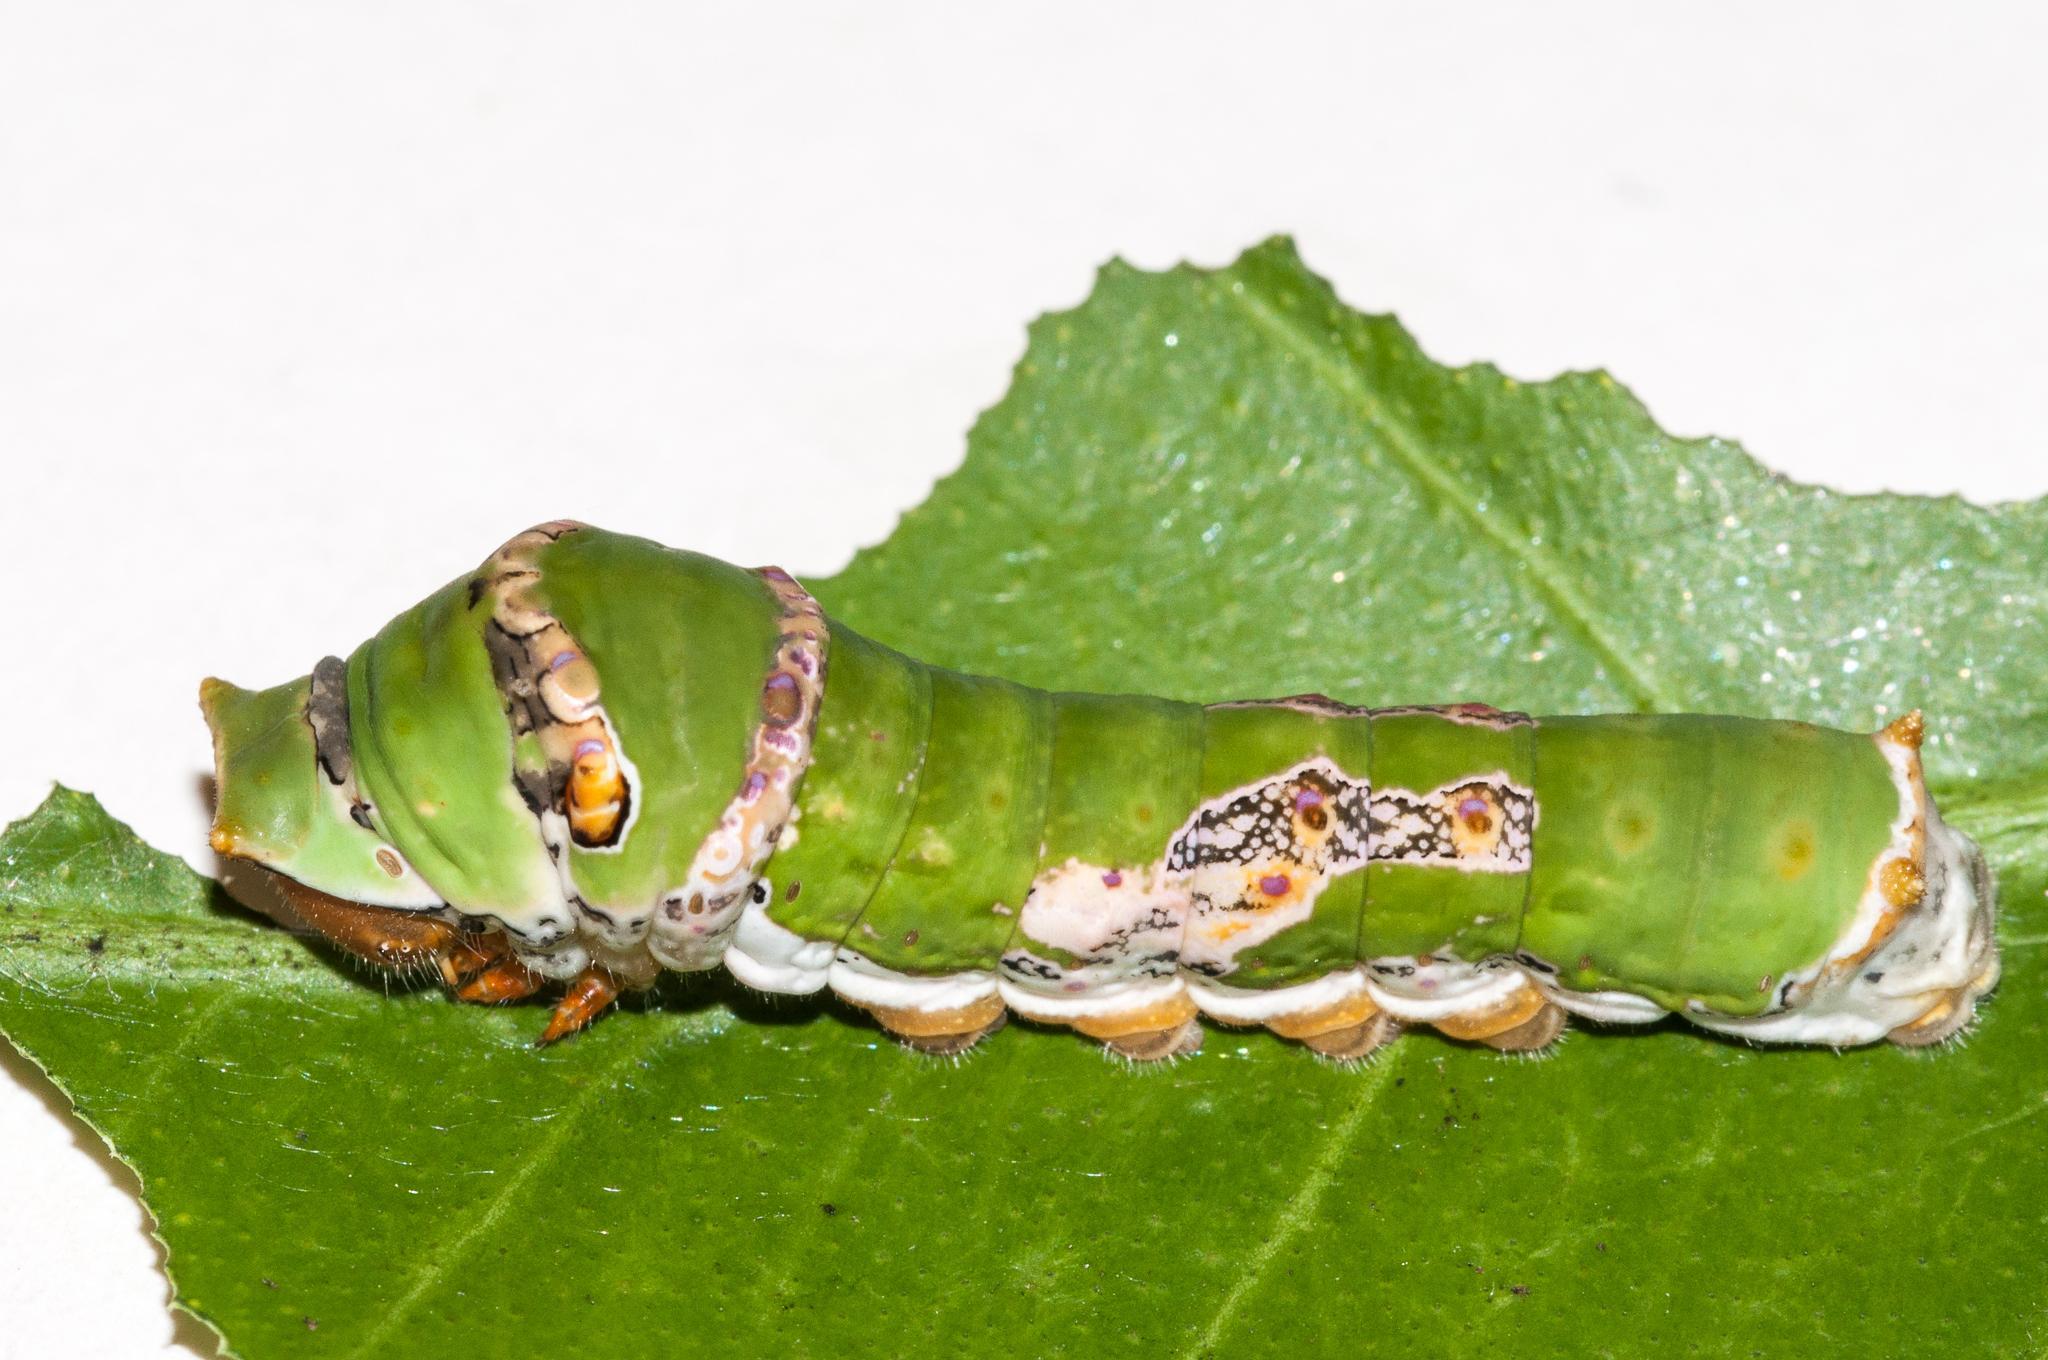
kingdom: Animalia
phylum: Arthropoda
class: Insecta
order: Lepidoptera
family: Papilionidae
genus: Papilio
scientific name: Papilio demodocus
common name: Christmas butterfly
